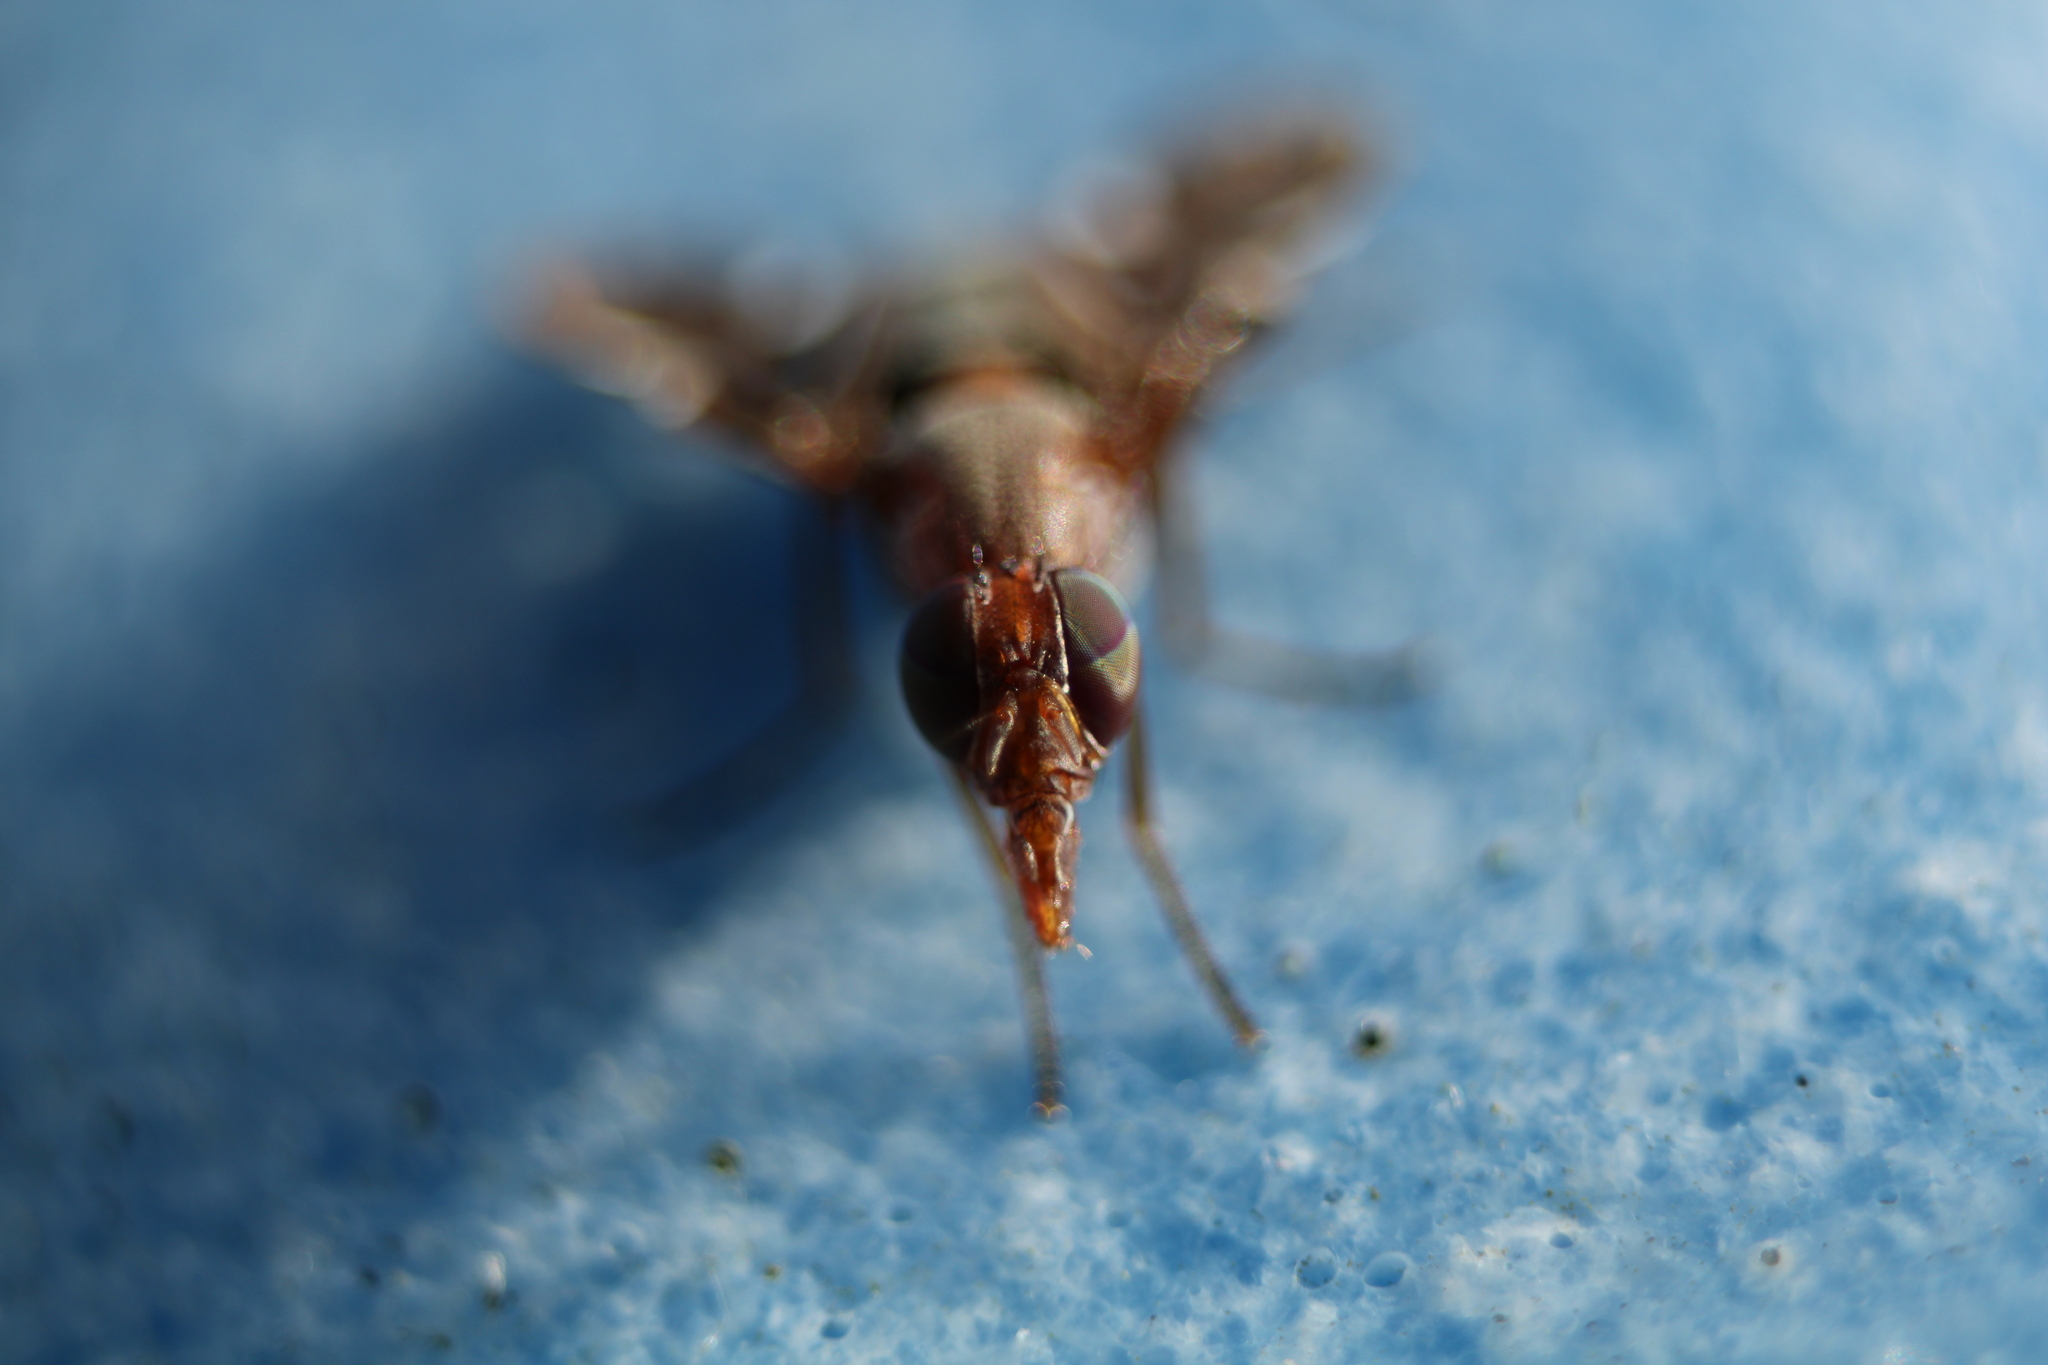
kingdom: Animalia
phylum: Arthropoda
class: Insecta
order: Diptera
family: Ulidiidae
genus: Delphinia
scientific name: Delphinia picta
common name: Common picture-winged fly
